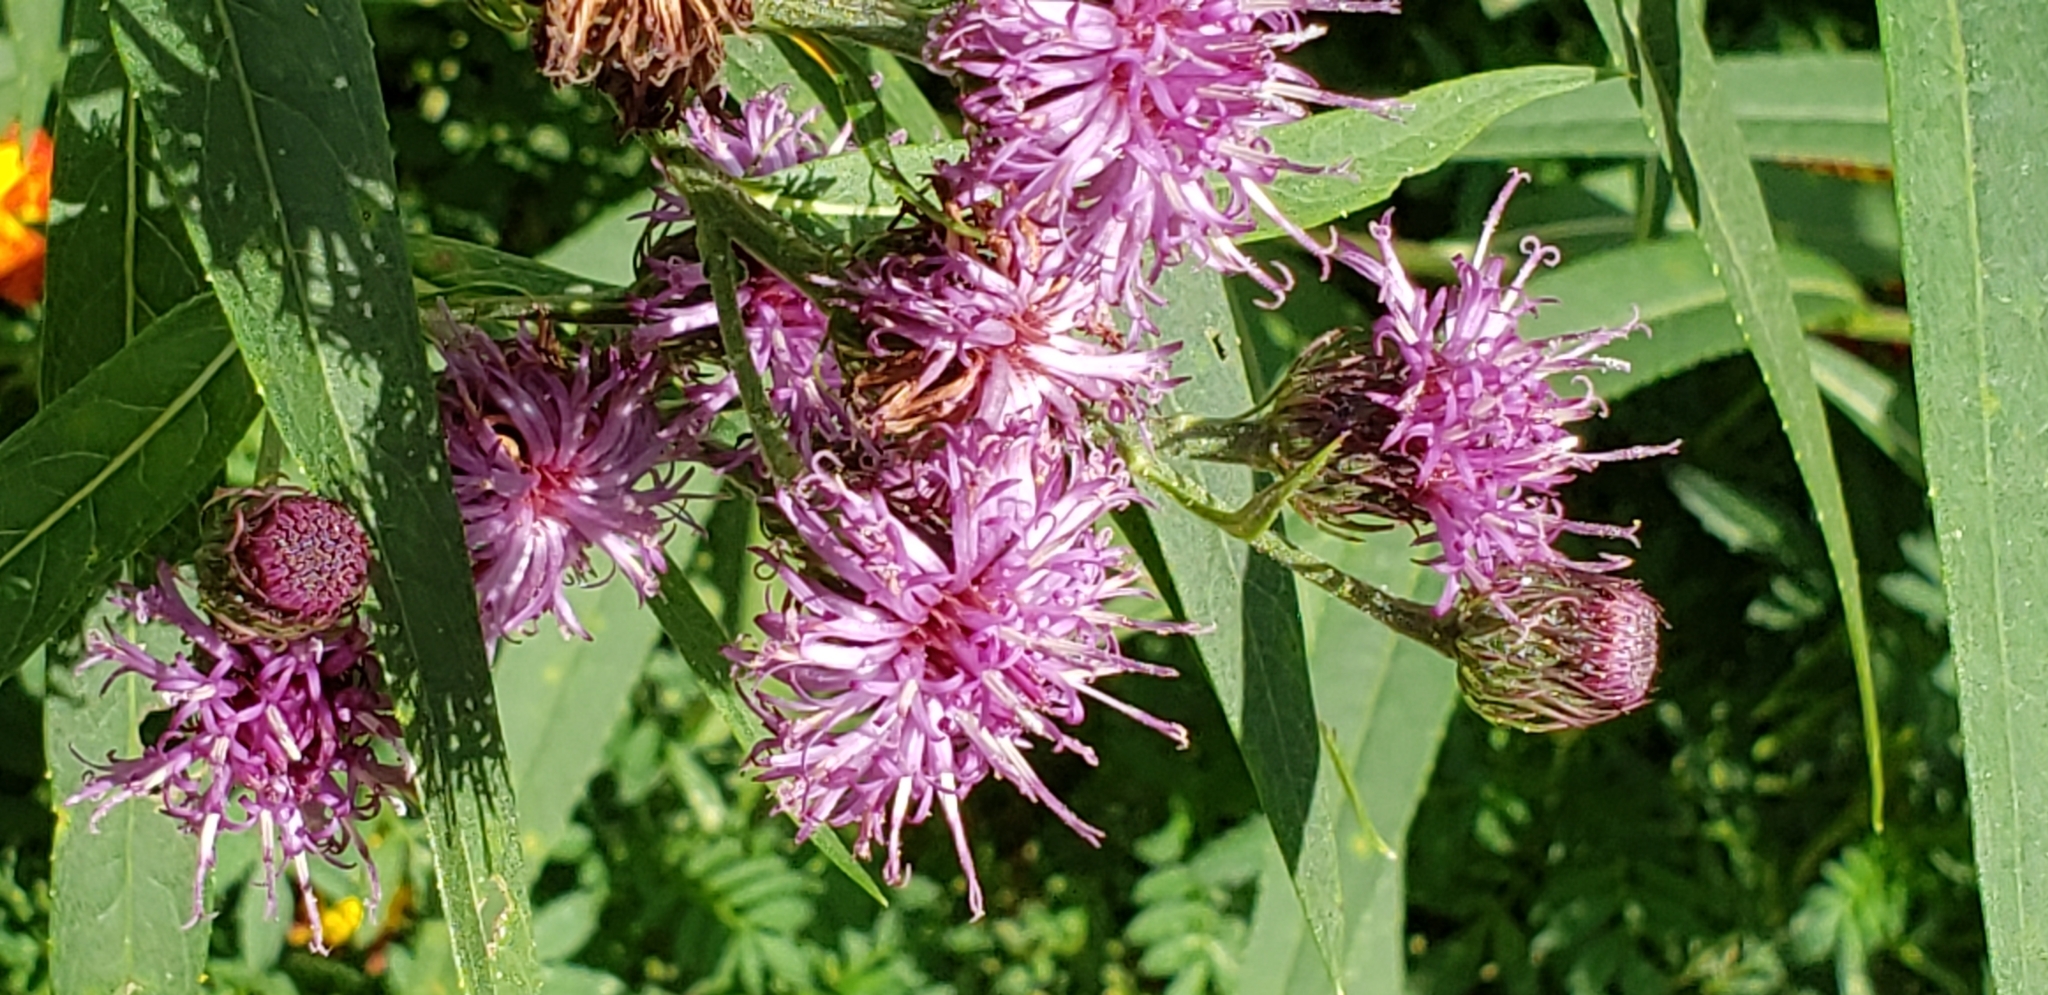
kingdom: Plantae
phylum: Tracheophyta
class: Magnoliopsida
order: Asterales
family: Asteraceae
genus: Vernonia
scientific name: Vernonia noveboracensis
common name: New york ironweed
